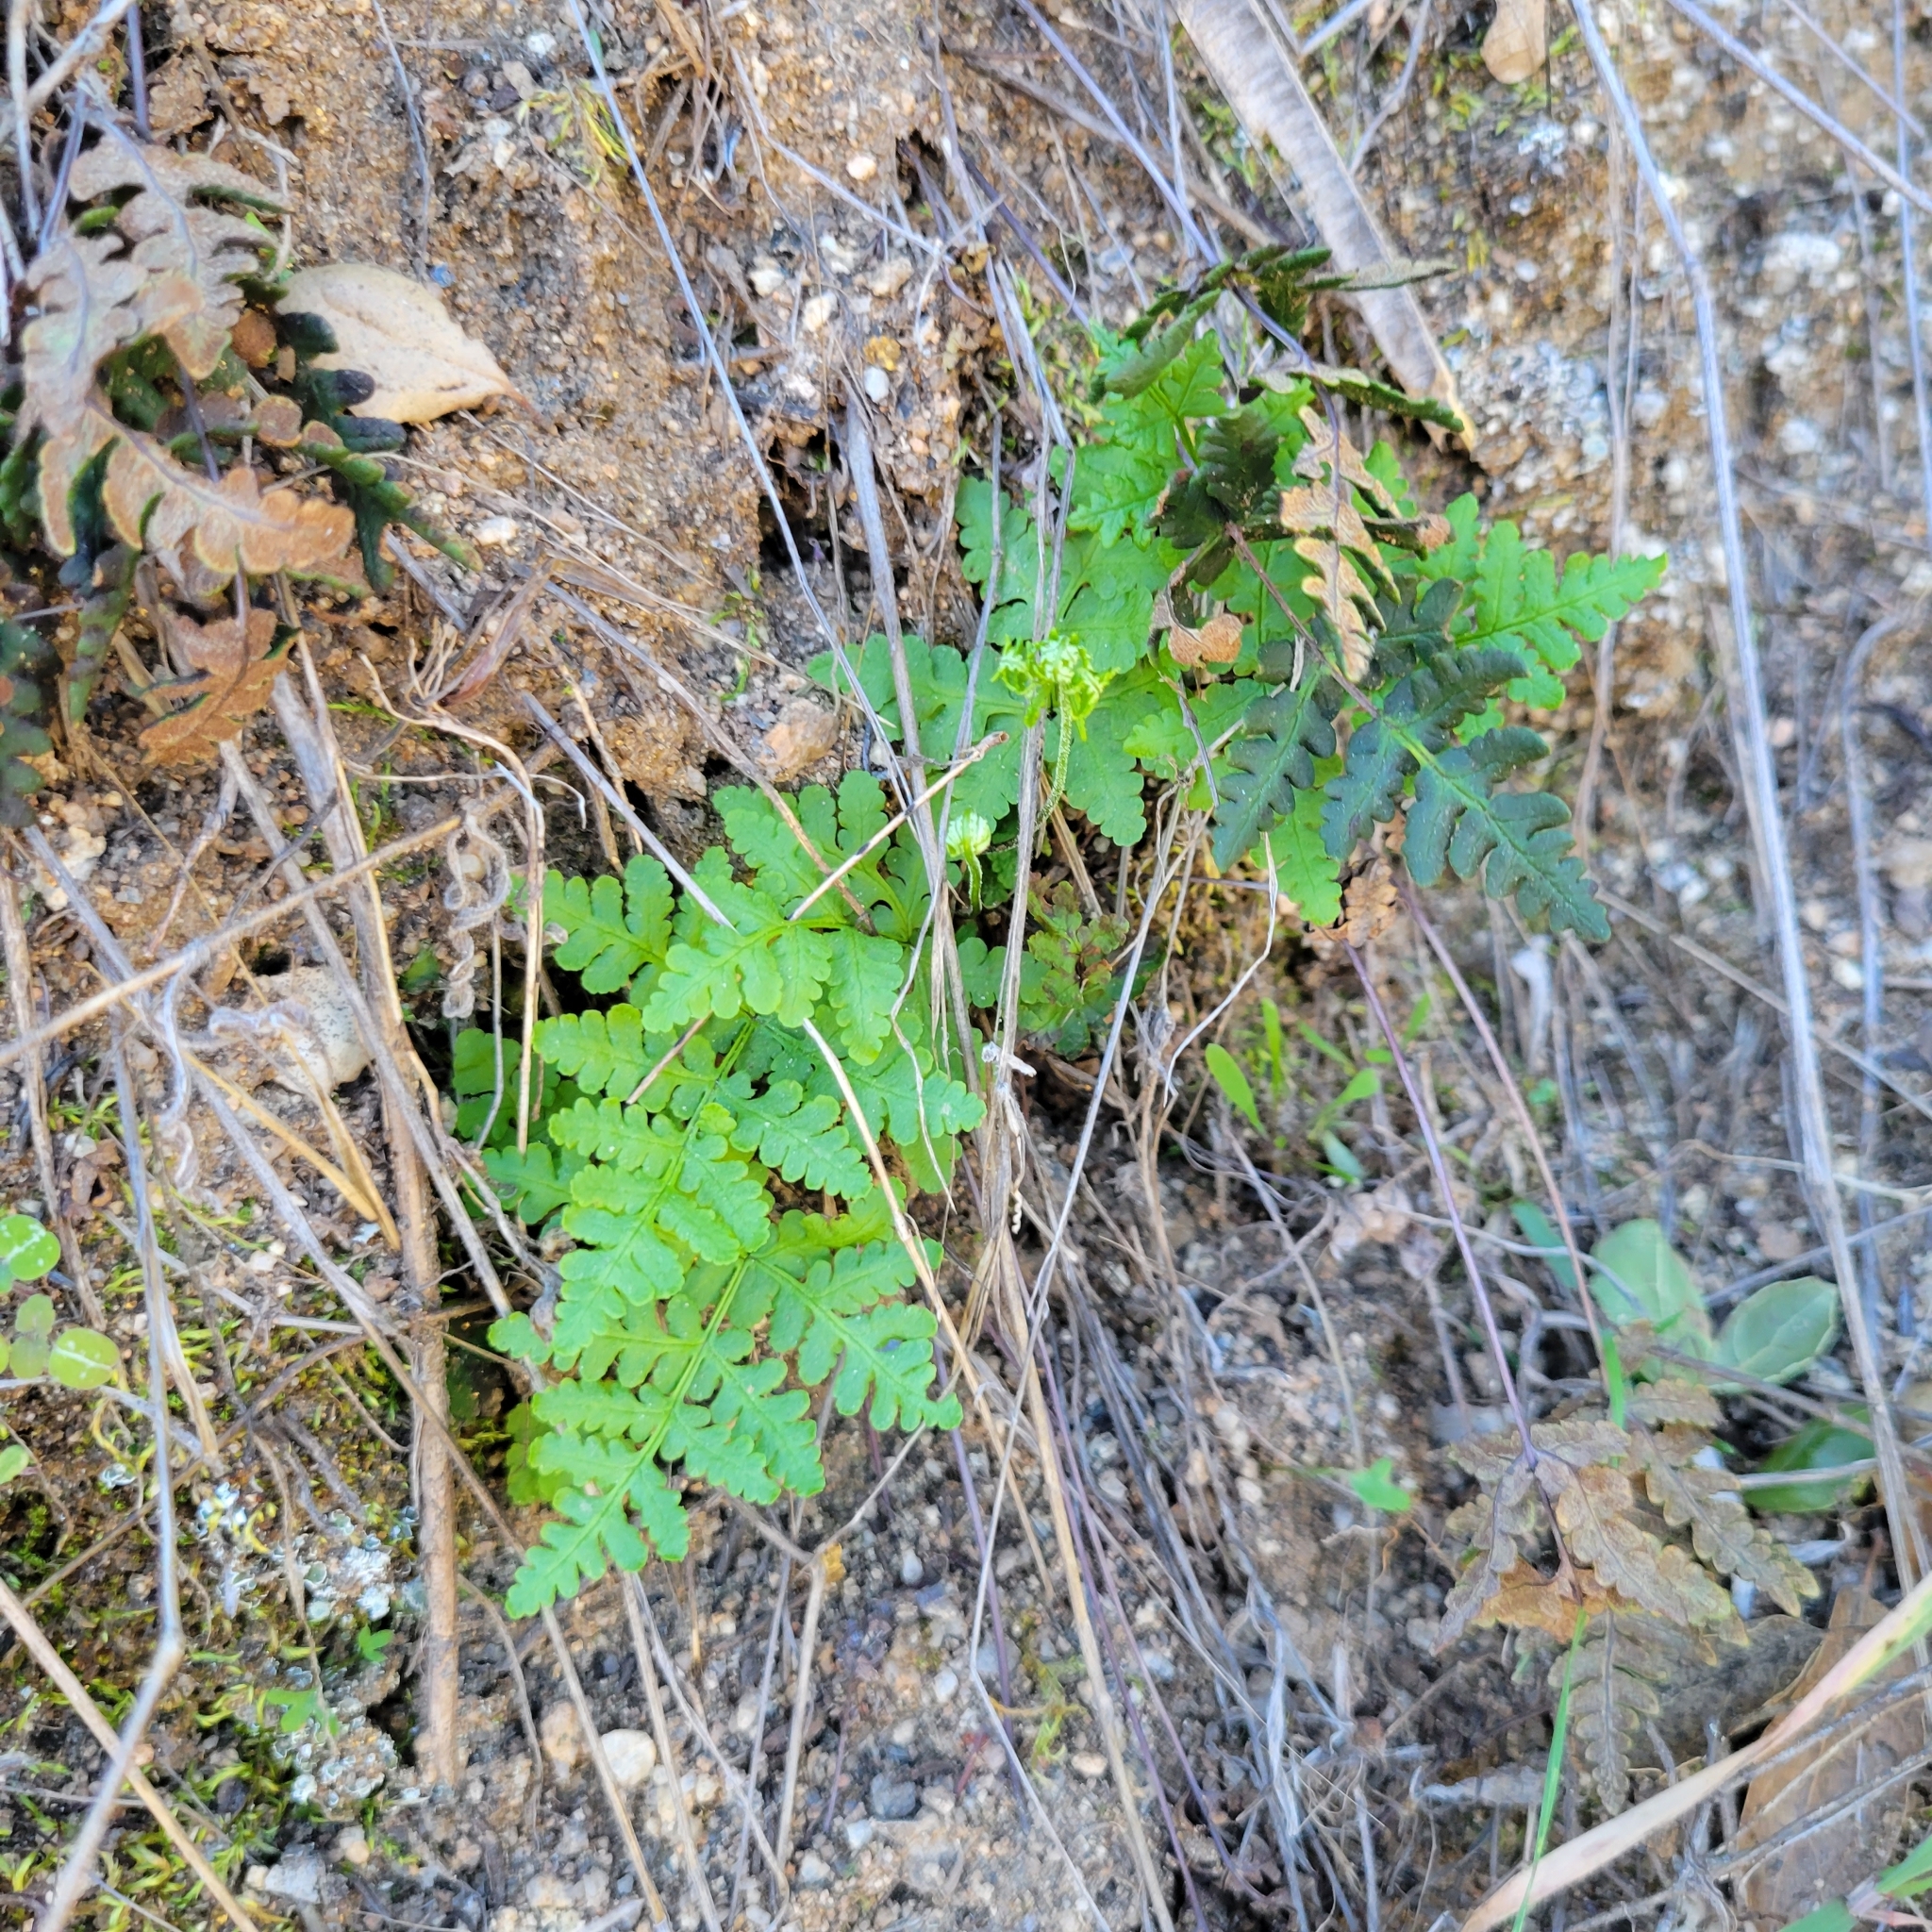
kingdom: Plantae
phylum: Tracheophyta
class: Polypodiopsida
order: Polypodiales
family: Pteridaceae
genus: Pentagramma
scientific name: Pentagramma triangularis
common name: Gold fern
